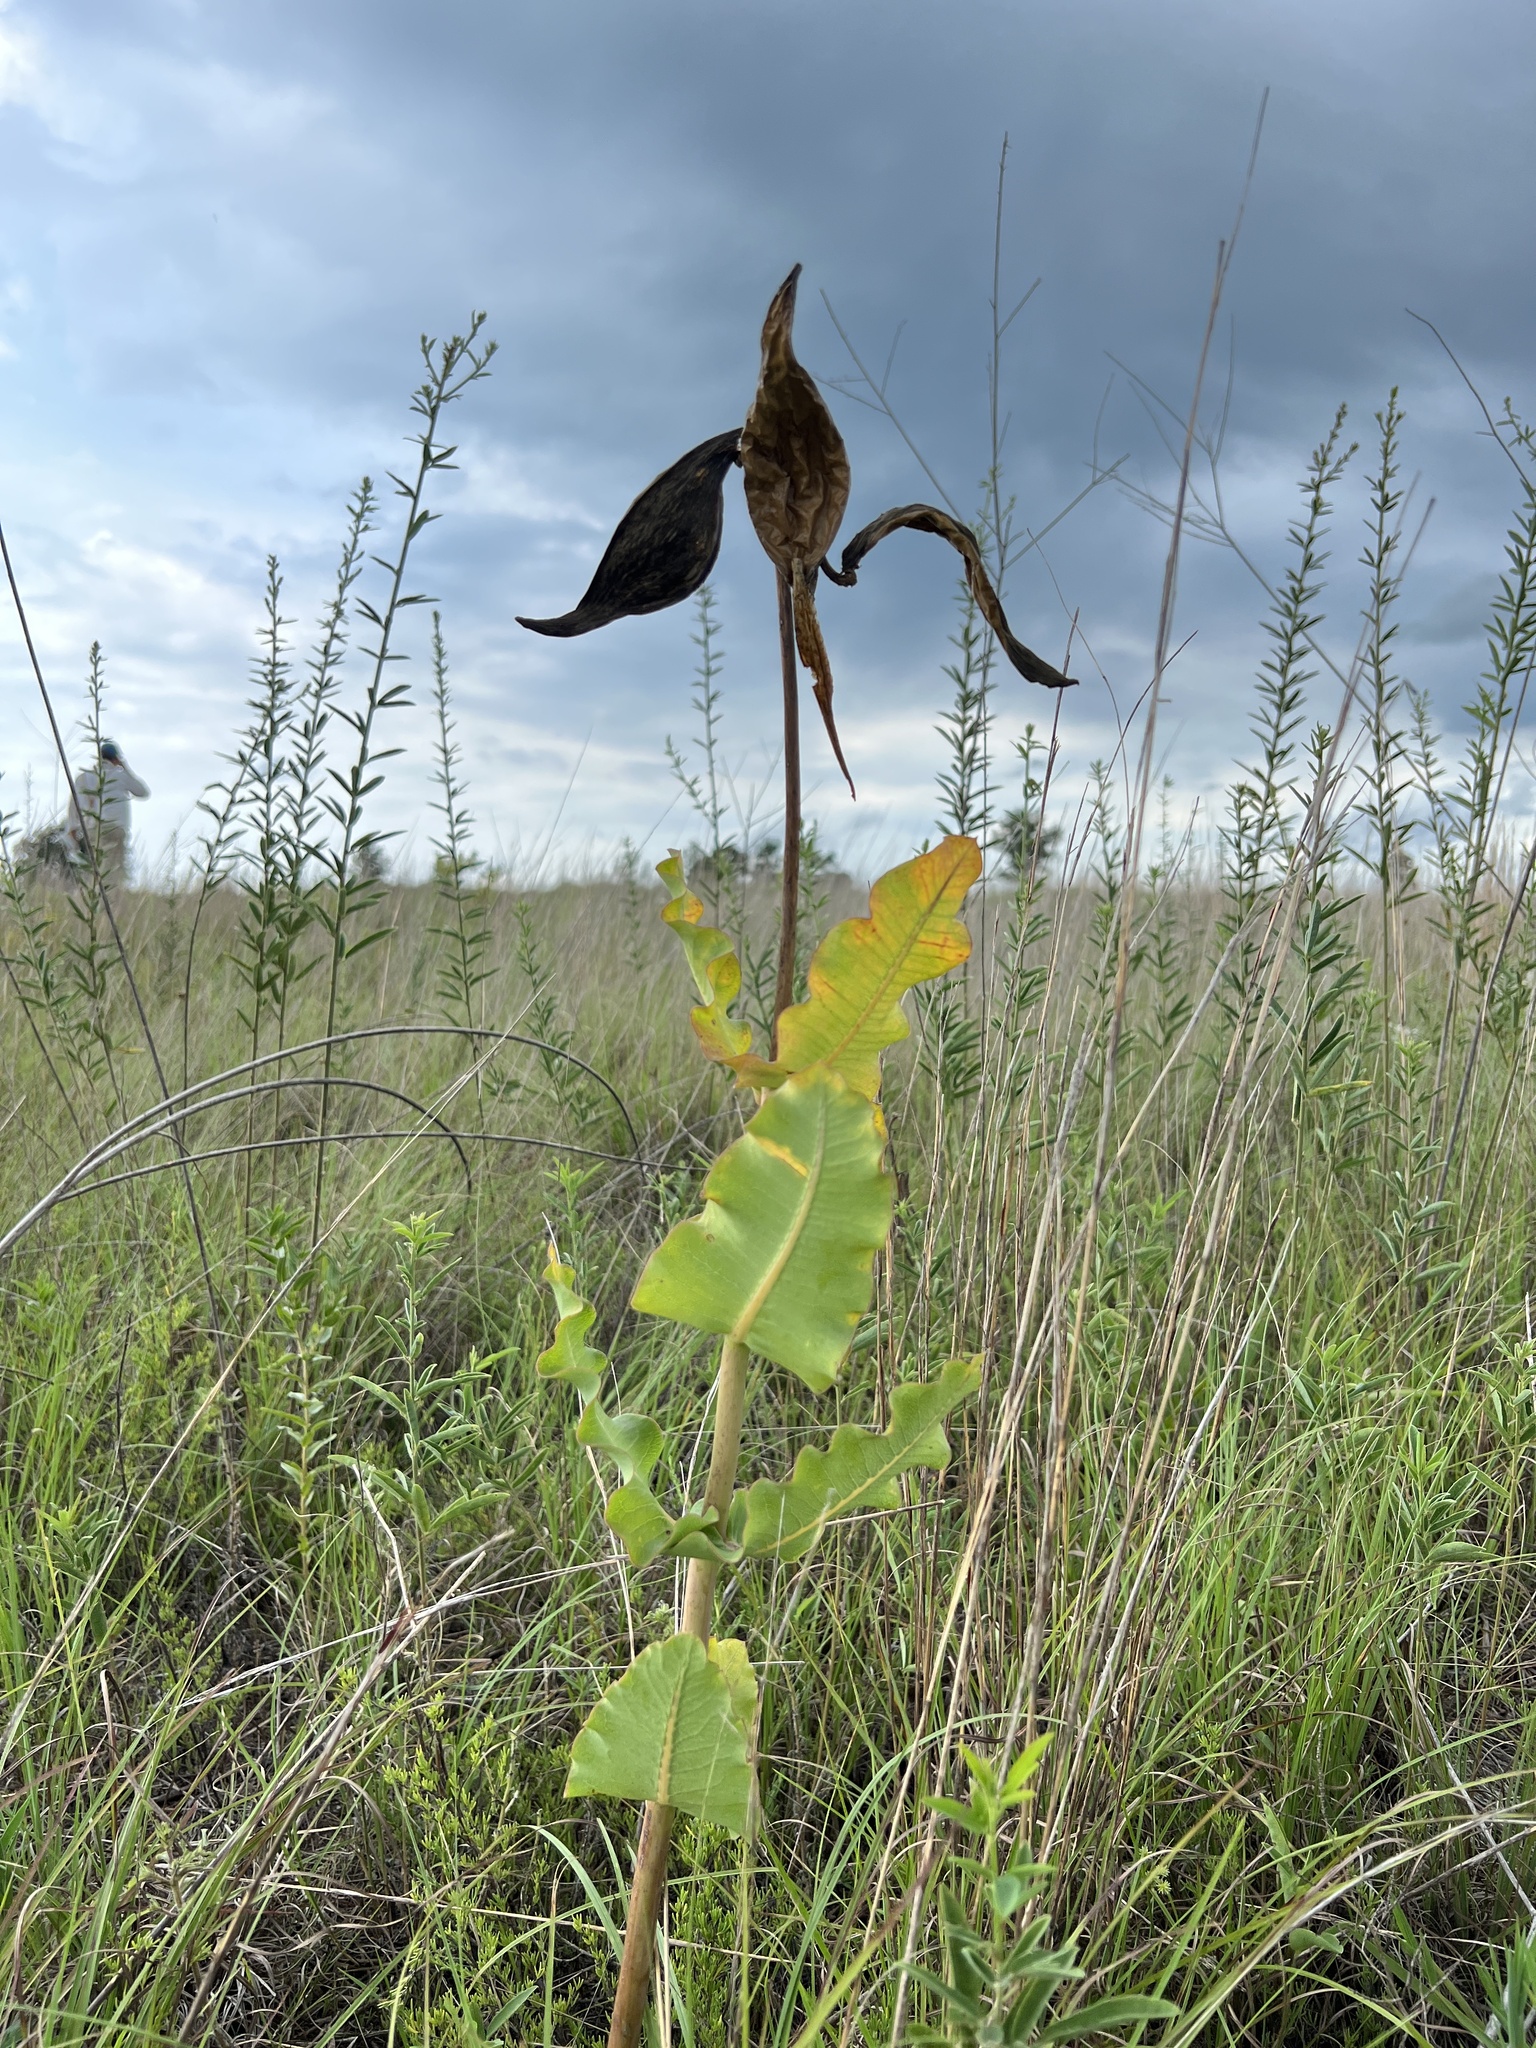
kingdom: Plantae
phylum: Tracheophyta
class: Magnoliopsida
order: Gentianales
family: Apocynaceae
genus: Asclepias
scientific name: Asclepias amplexicaulis
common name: Blunt-leaf milkweed
